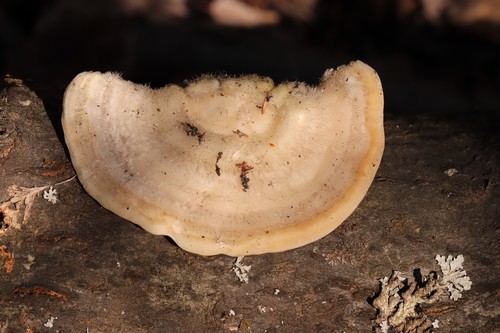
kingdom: Fungi
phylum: Basidiomycota
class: Agaricomycetes
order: Polyporales
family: Polyporaceae
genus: Trametes
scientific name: Trametes hirsuta
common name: Hairy bracket
